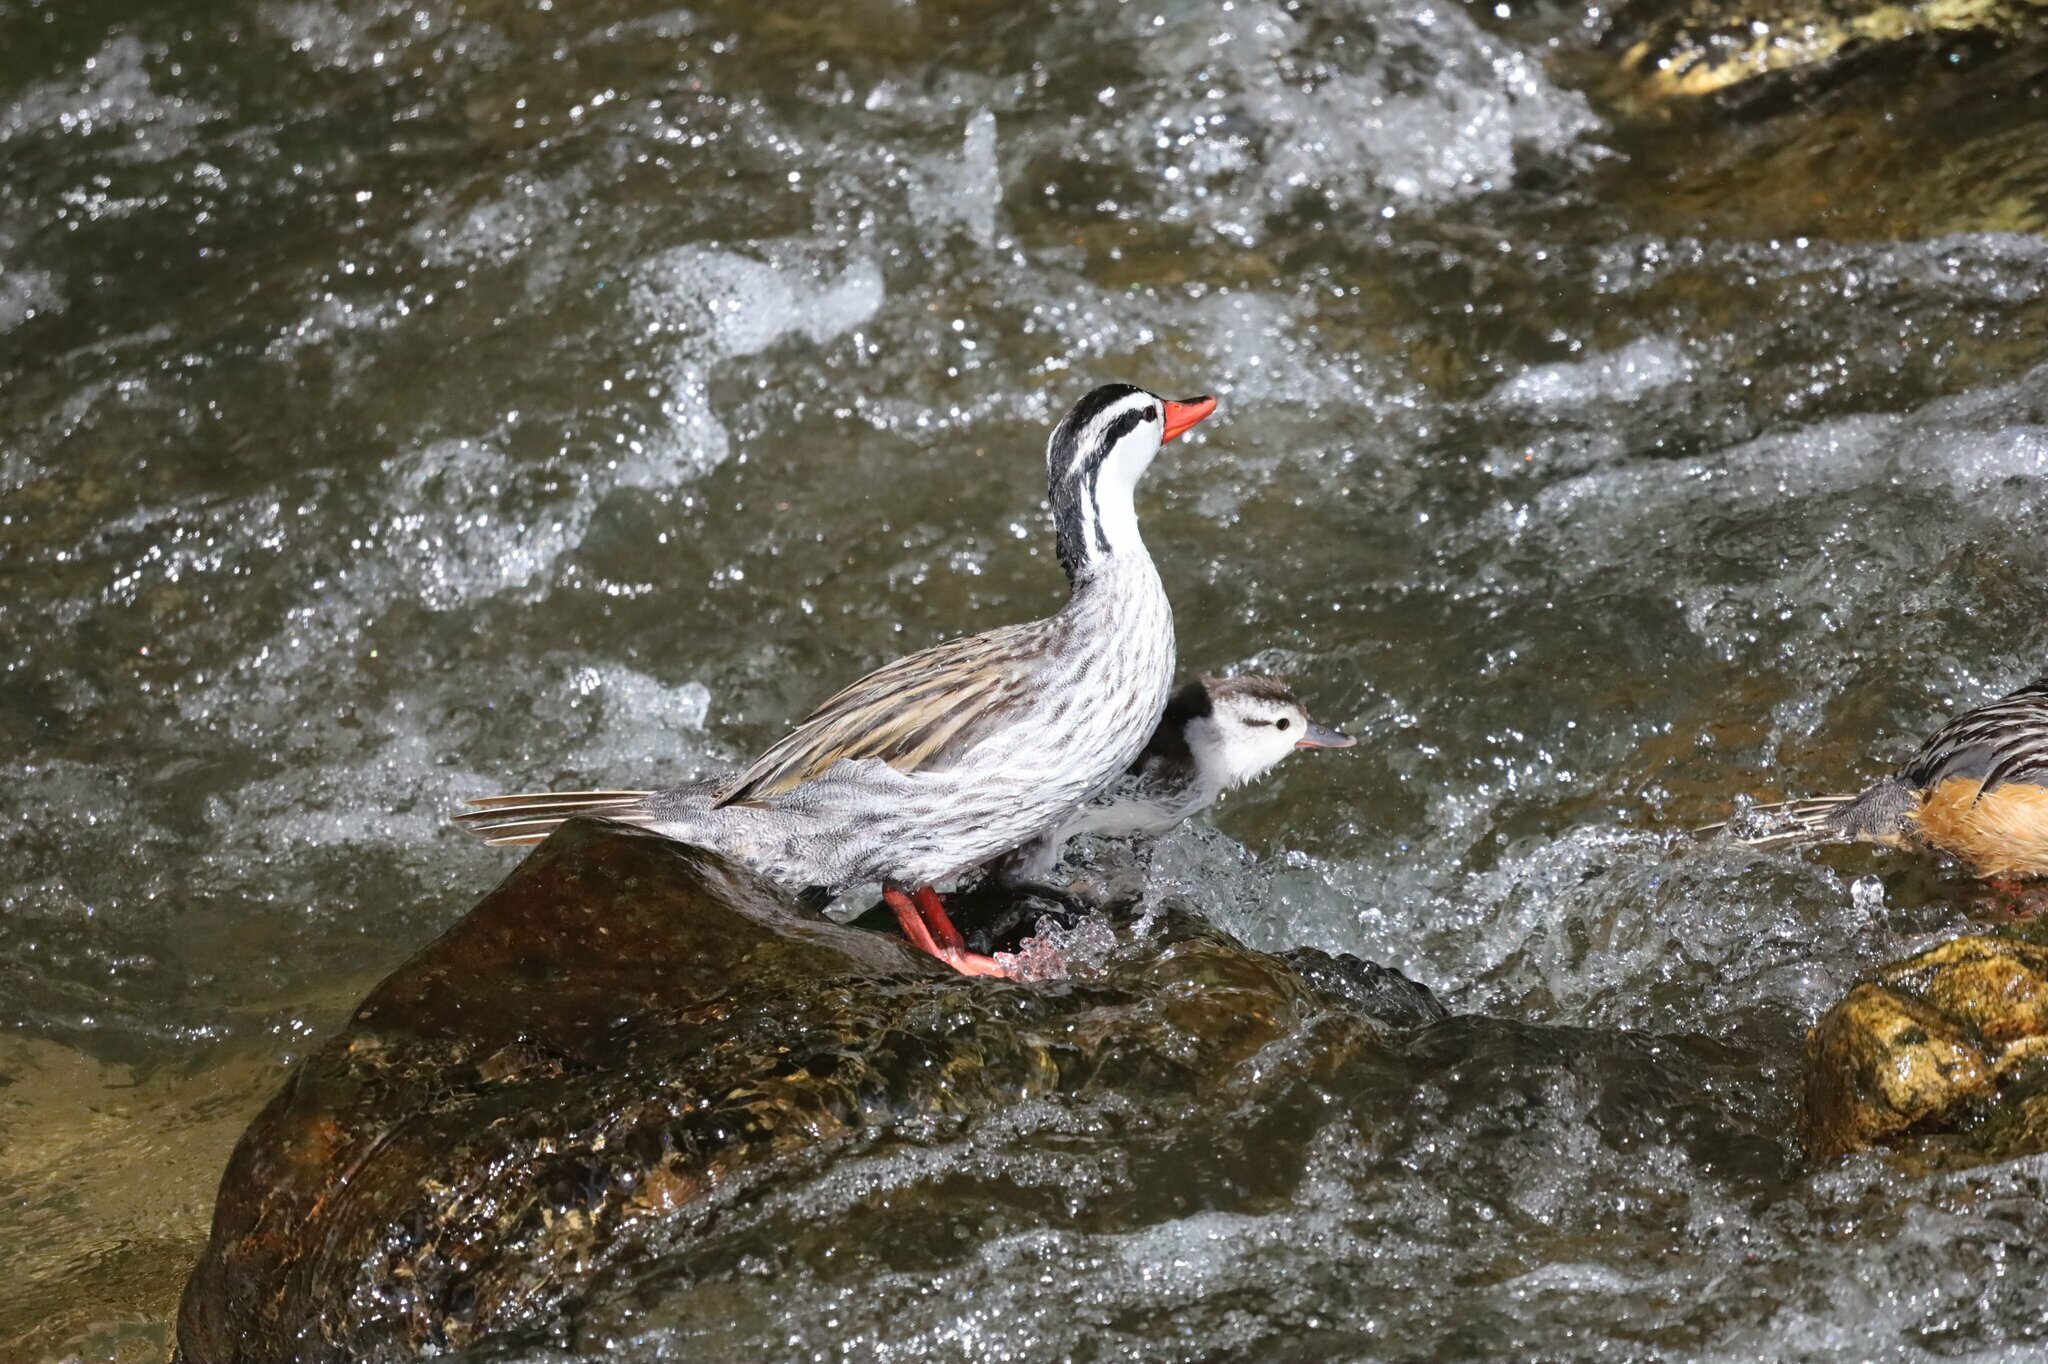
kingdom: Animalia
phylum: Chordata
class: Aves
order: Anseriformes
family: Anatidae
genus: Merganetta
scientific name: Merganetta armata
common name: Torrent duck
